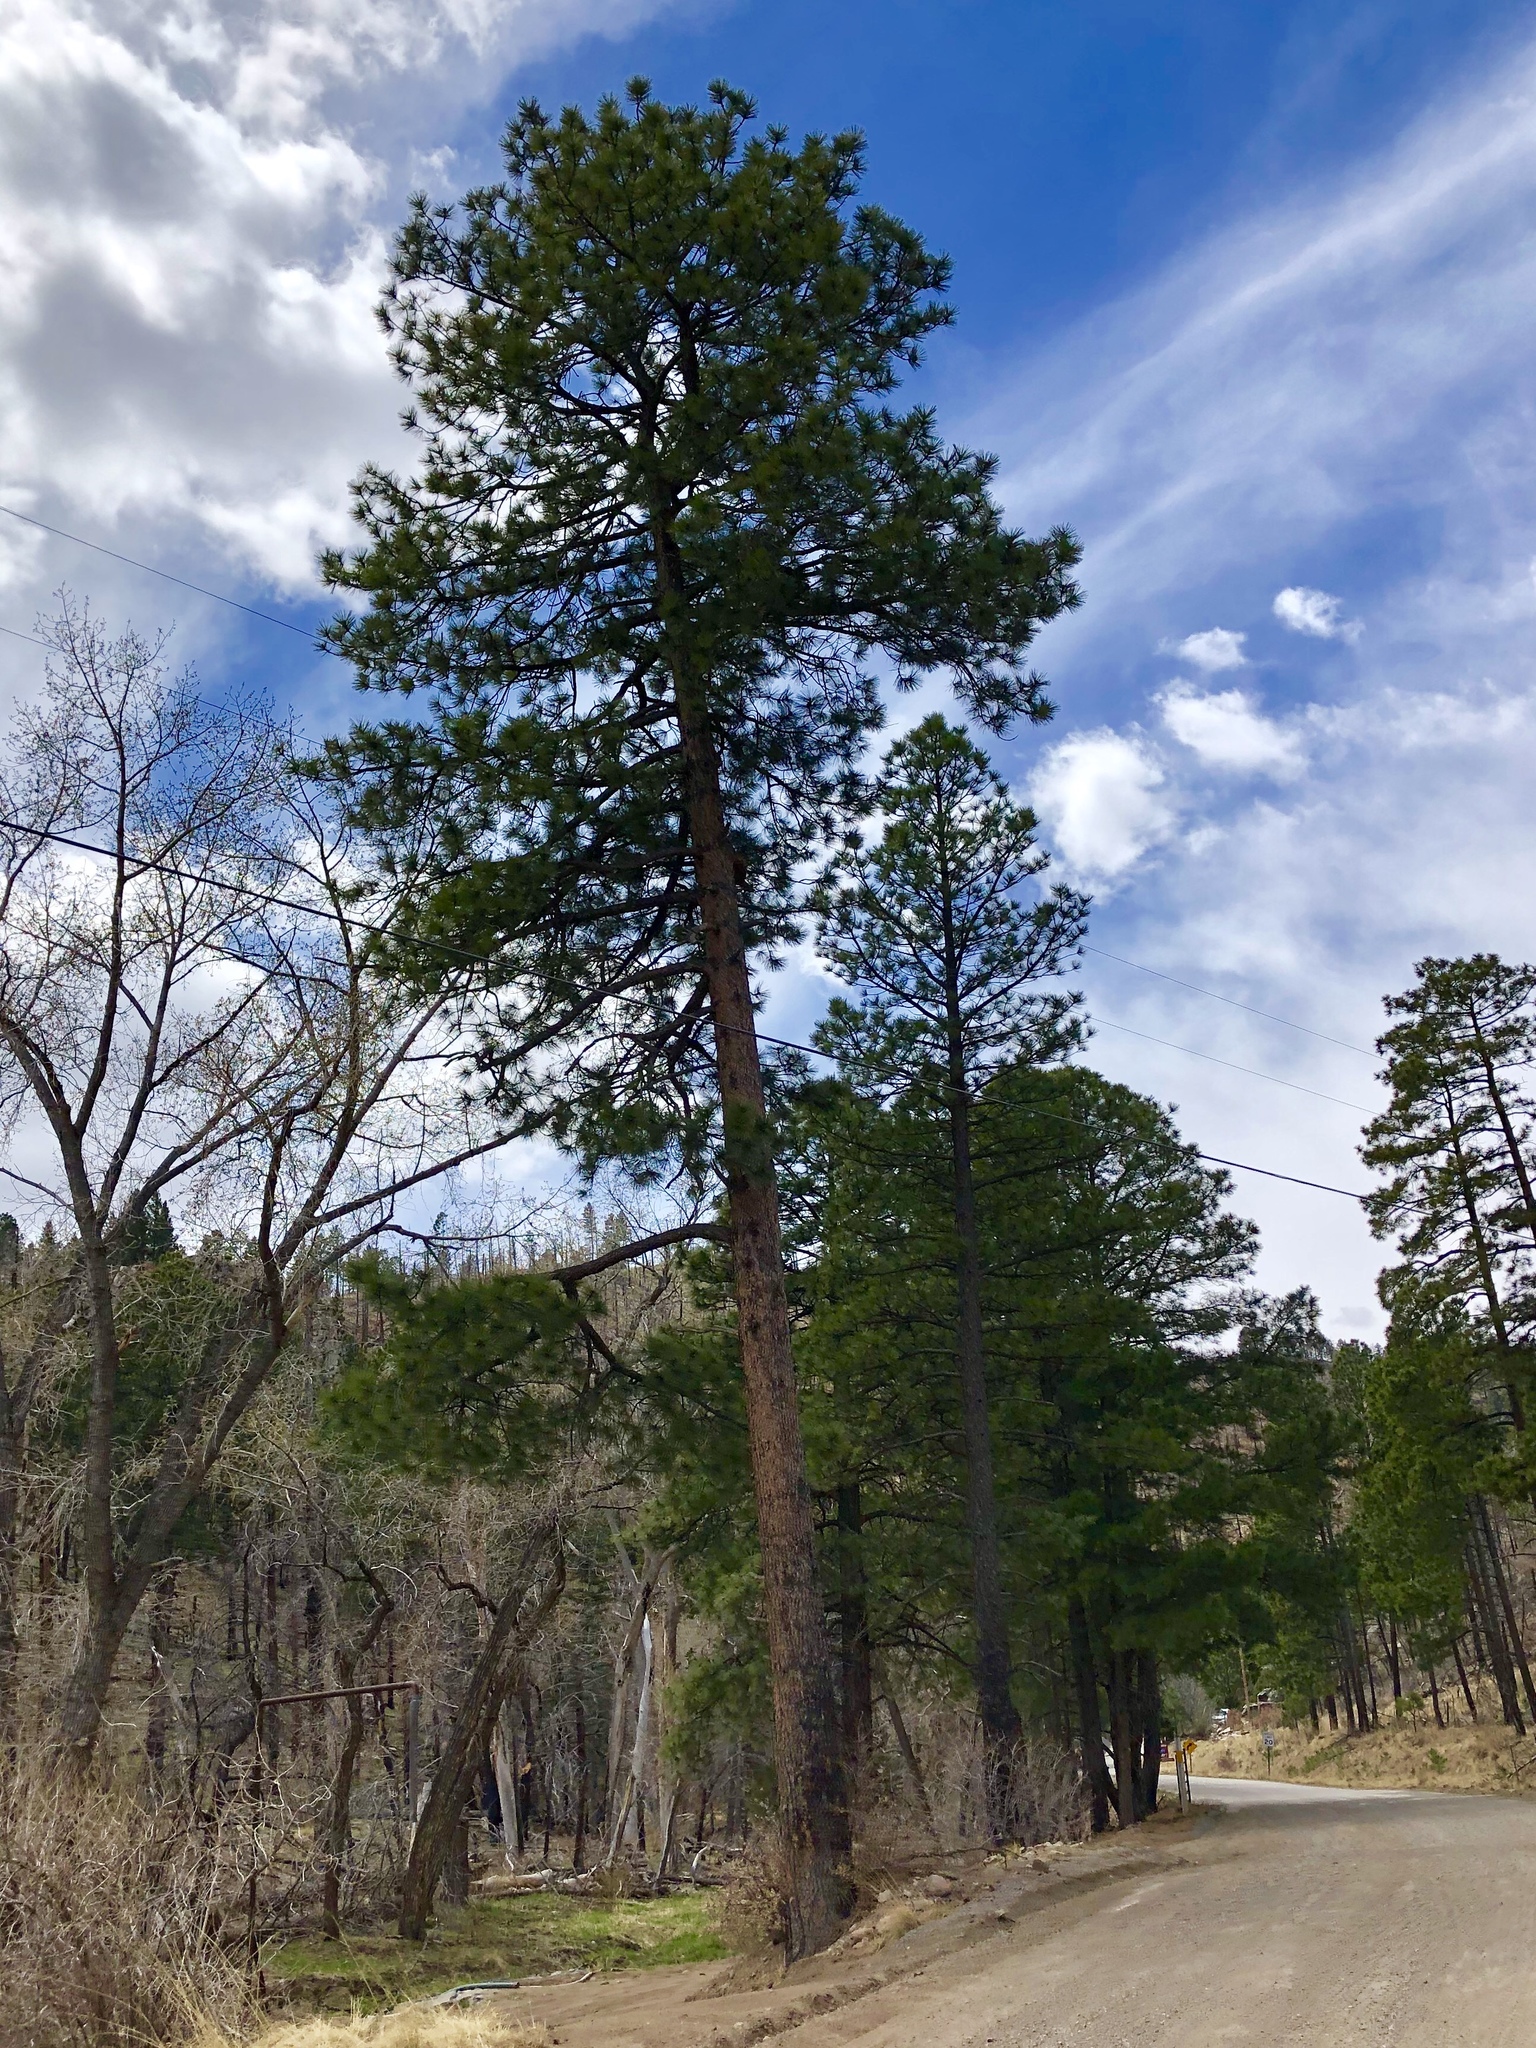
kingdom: Plantae
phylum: Tracheophyta
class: Pinopsida
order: Pinales
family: Pinaceae
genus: Pinus
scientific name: Pinus ponderosa
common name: Western yellow-pine
